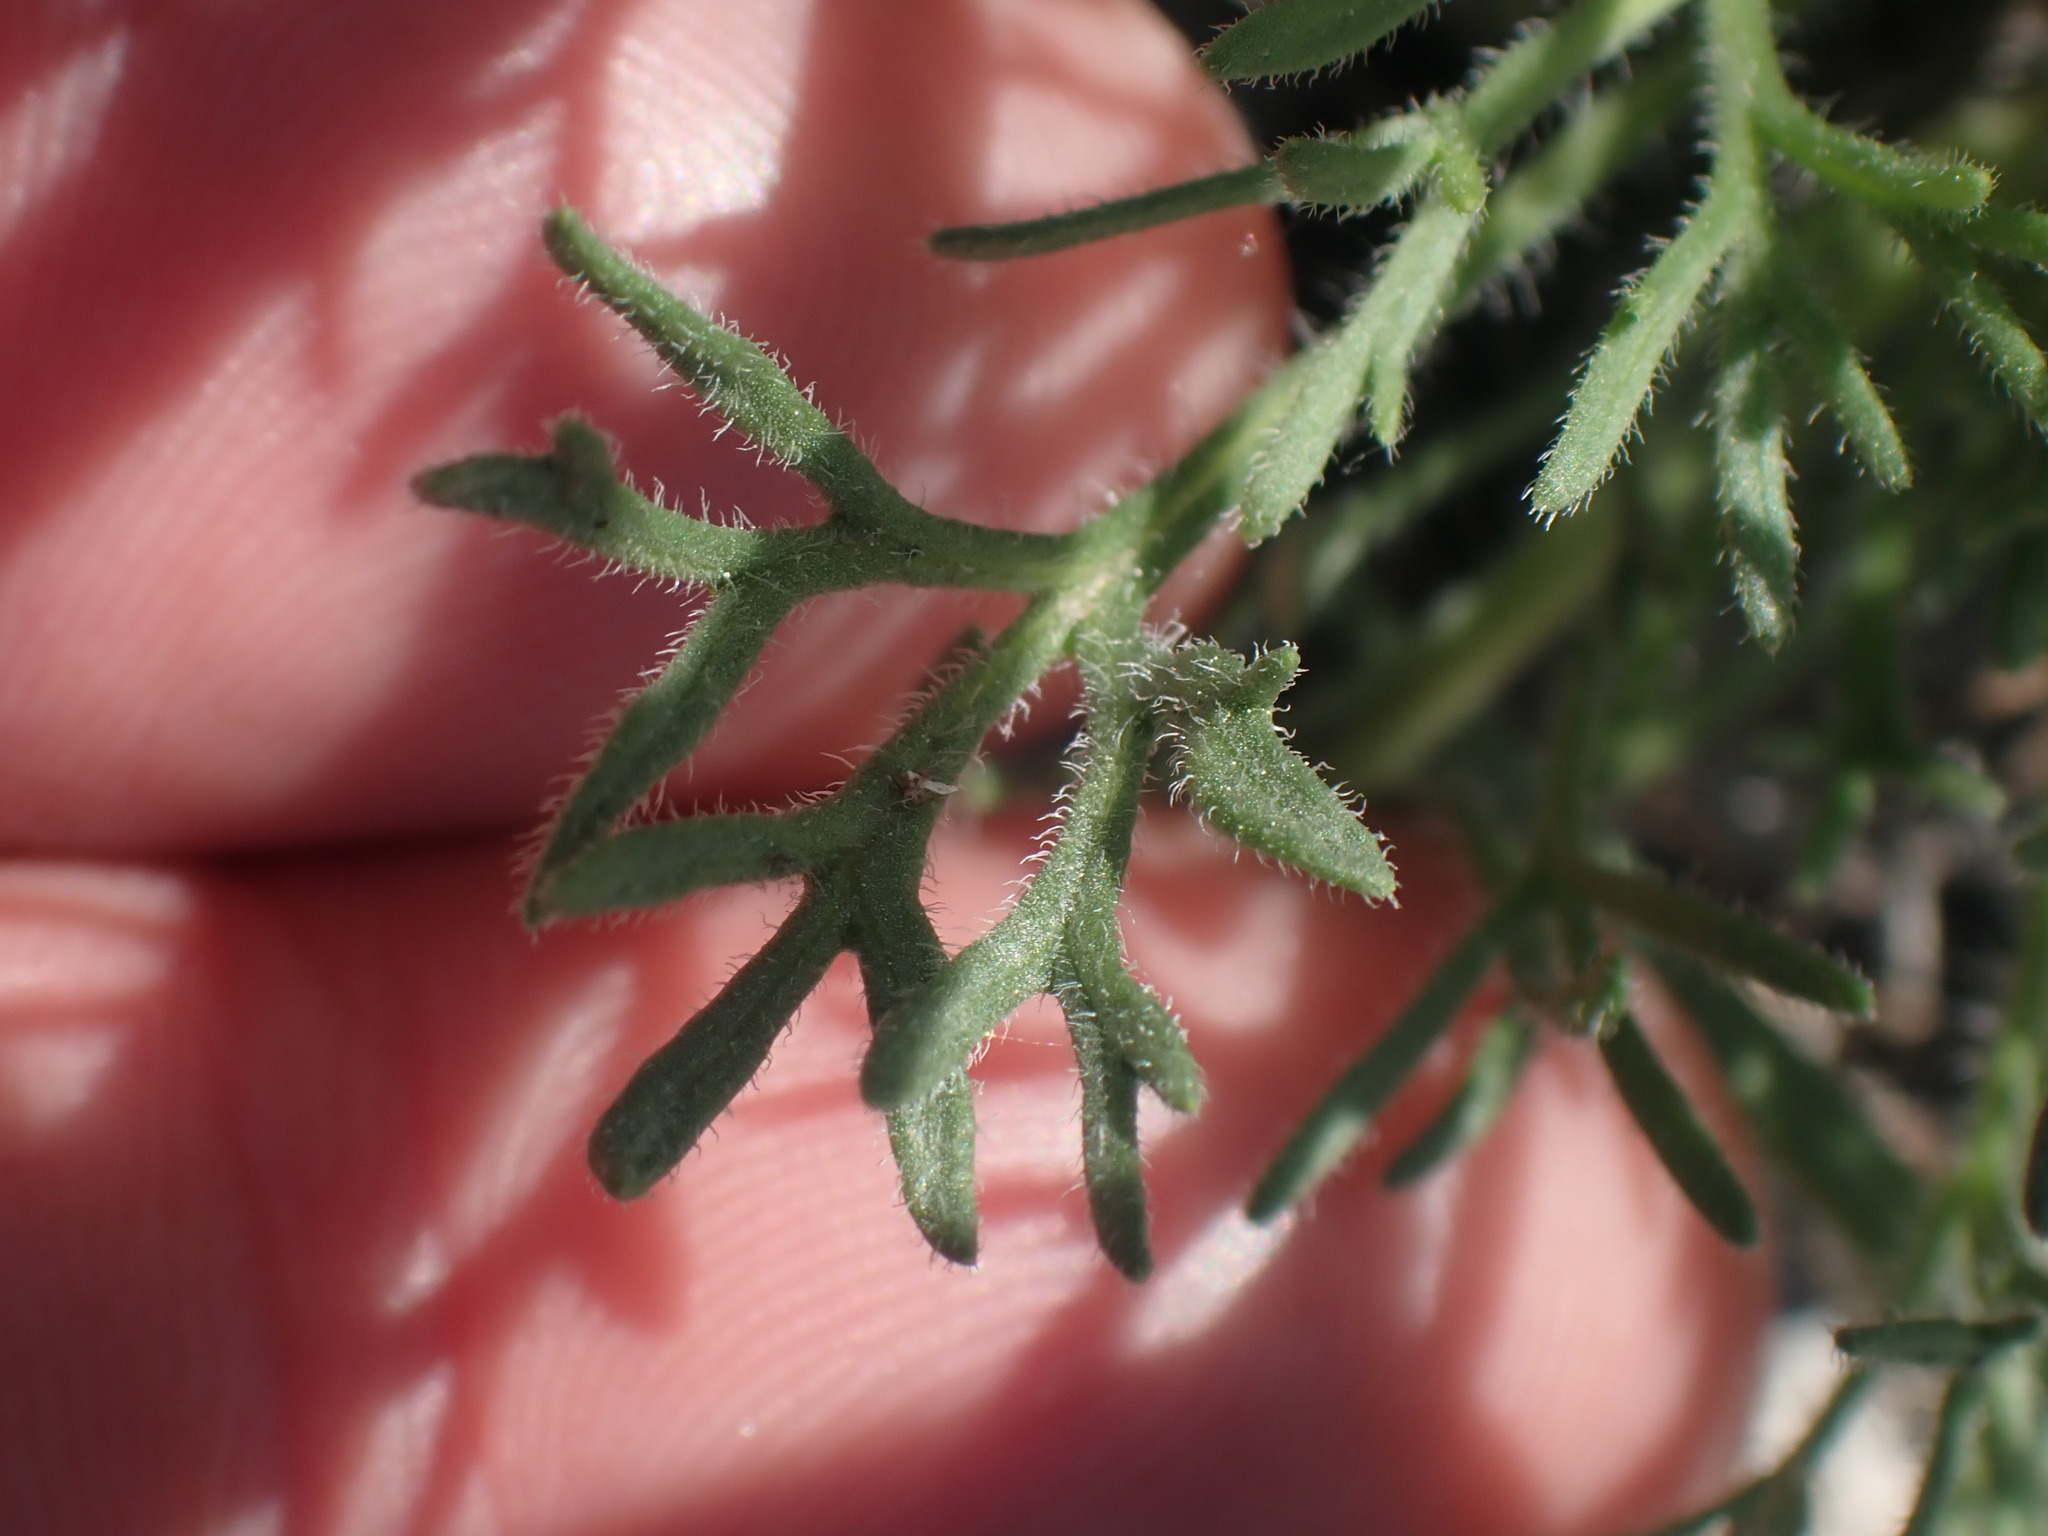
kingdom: Plantae
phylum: Tracheophyta
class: Magnoliopsida
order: Asterales
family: Asteraceae
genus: Erigeron
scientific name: Erigeron compositus
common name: Dwarf mountain fleabane
